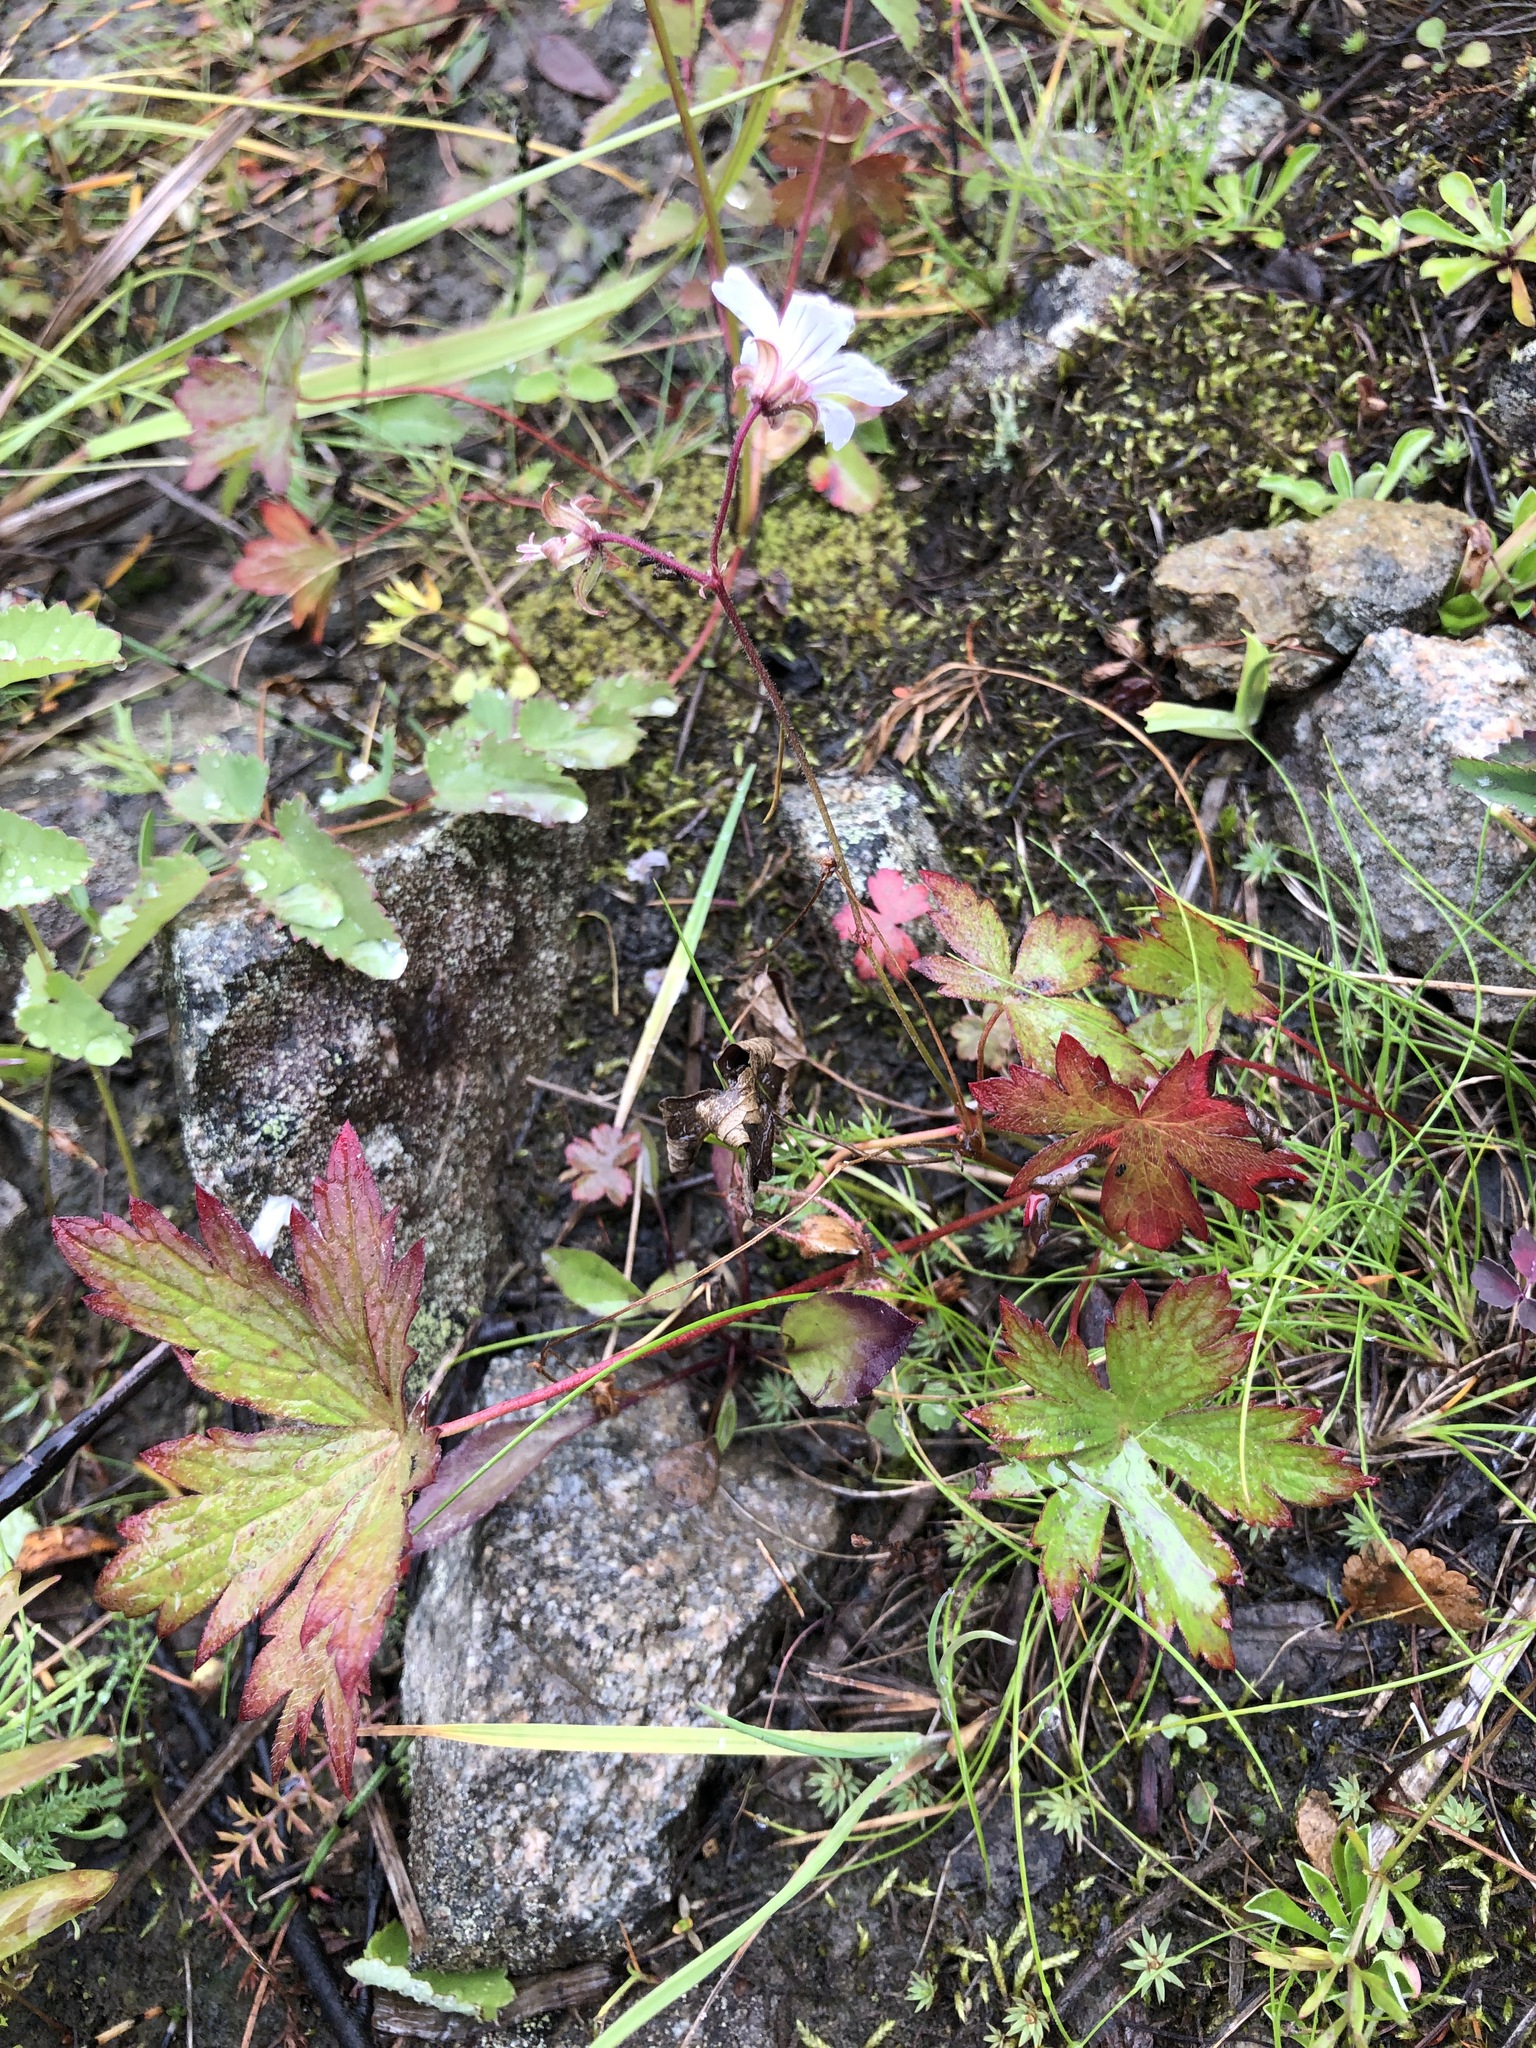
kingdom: Plantae
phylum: Tracheophyta
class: Magnoliopsida
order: Geraniales
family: Geraniaceae
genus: Geranium
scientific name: Geranium sylvaticum
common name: Wood crane's-bill
